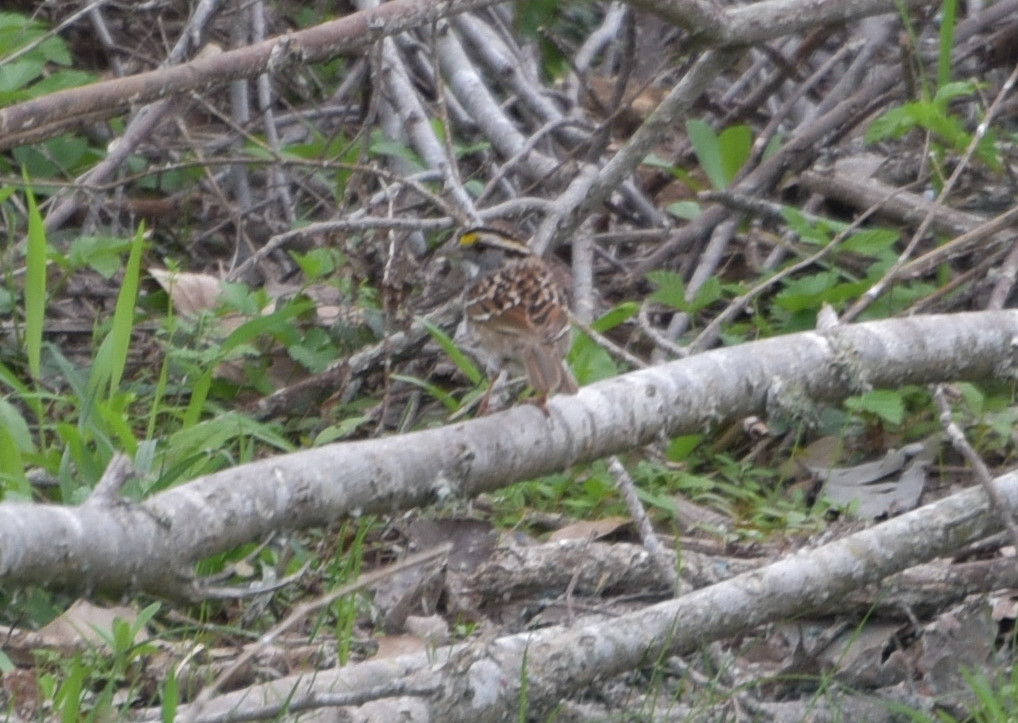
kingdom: Animalia
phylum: Chordata
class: Aves
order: Passeriformes
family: Passerellidae
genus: Zonotrichia
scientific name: Zonotrichia albicollis
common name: White-throated sparrow
